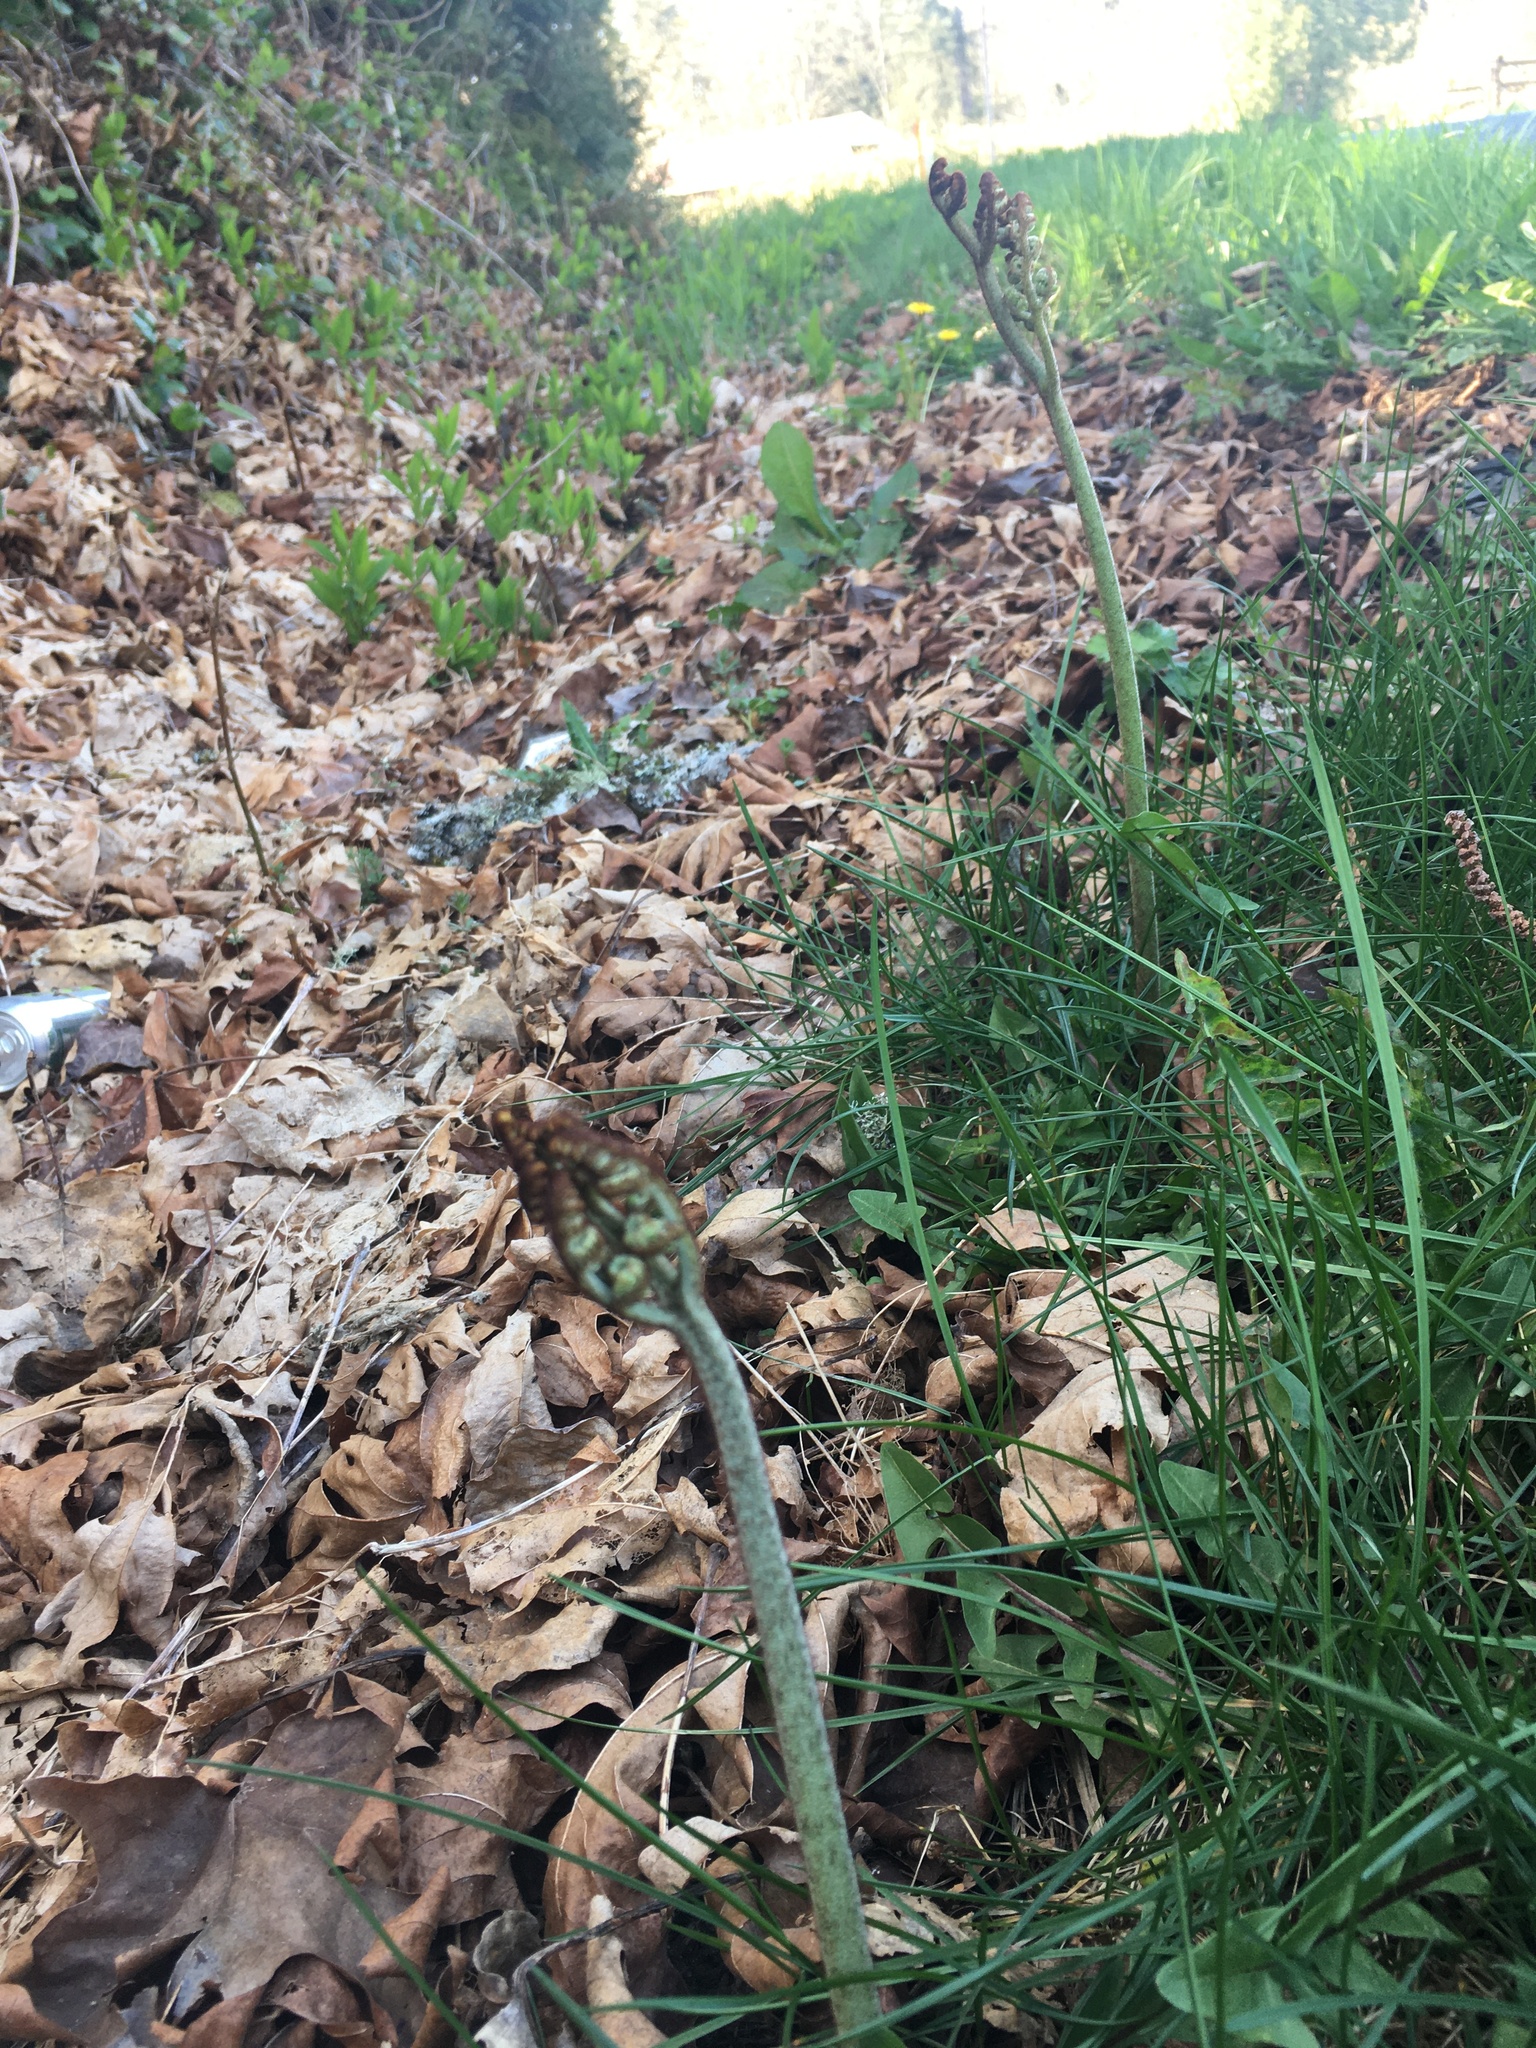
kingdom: Plantae
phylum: Tracheophyta
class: Polypodiopsida
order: Polypodiales
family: Dennstaedtiaceae
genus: Pteridium
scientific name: Pteridium aquilinum
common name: Bracken
